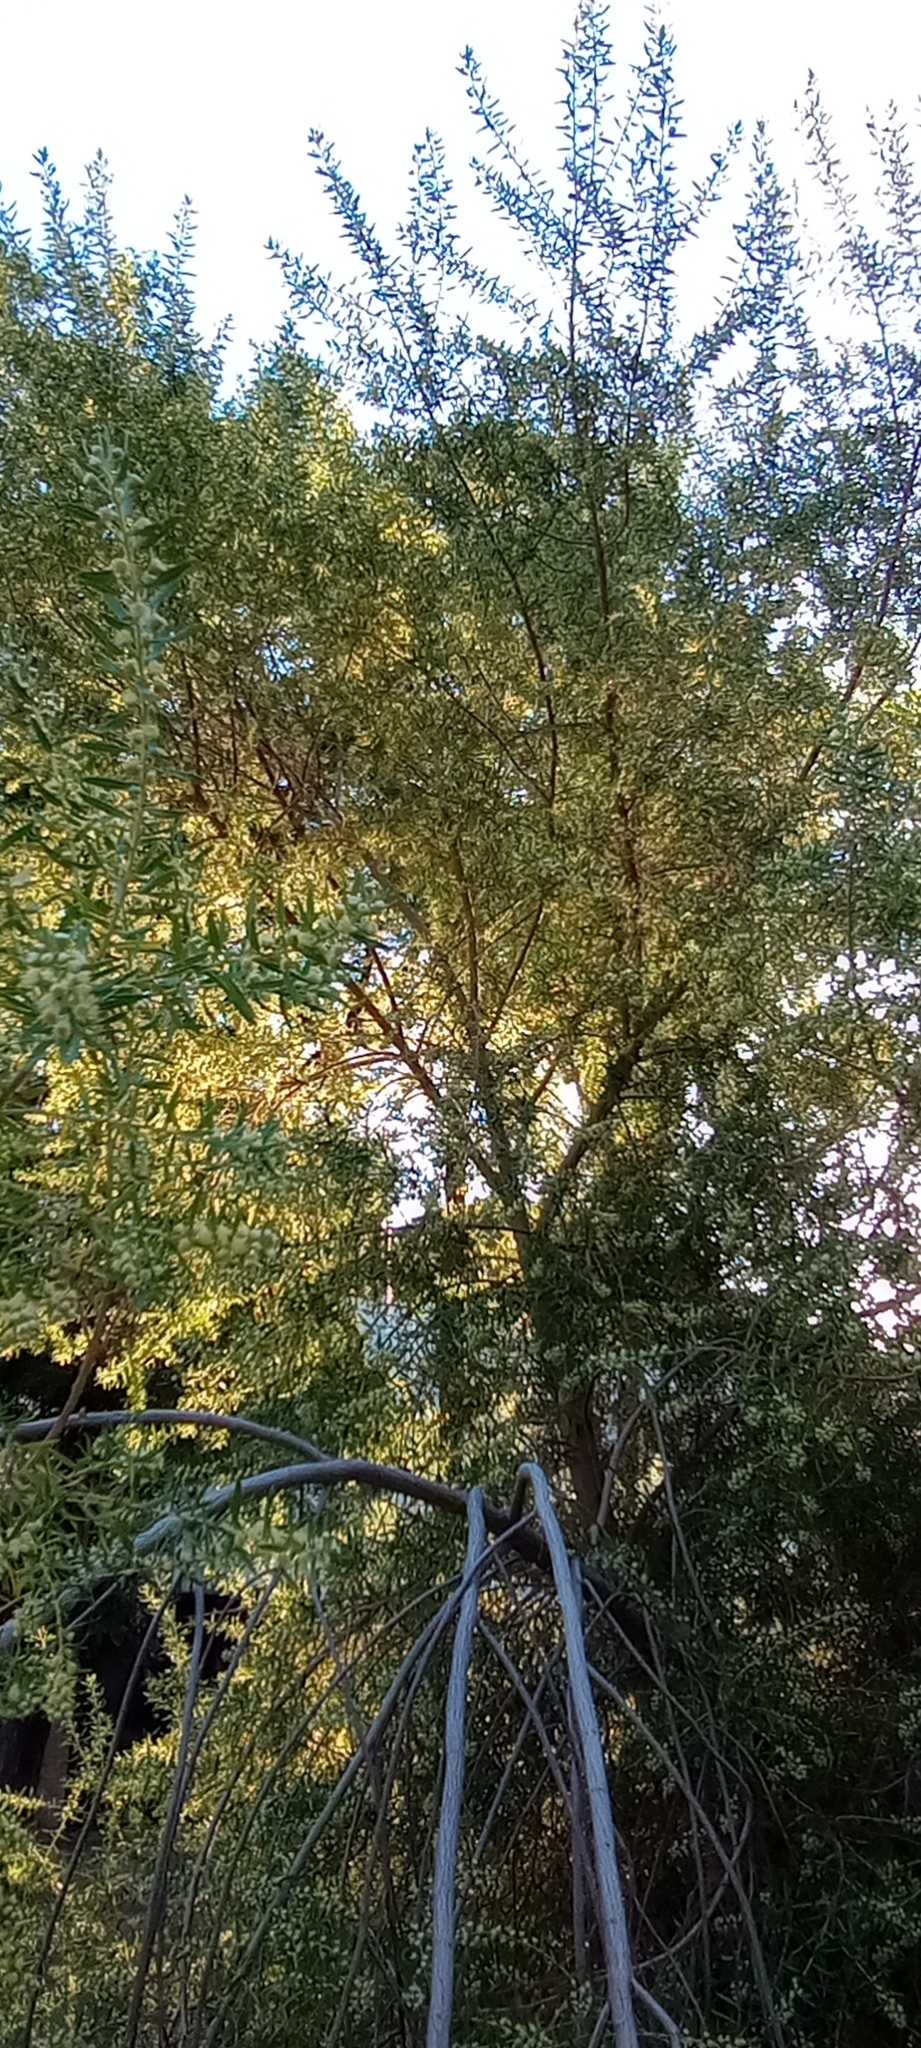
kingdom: Plantae
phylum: Tracheophyta
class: Magnoliopsida
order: Asterales
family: Asteraceae
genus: Baccharis
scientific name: Baccharis dracunculifolia
